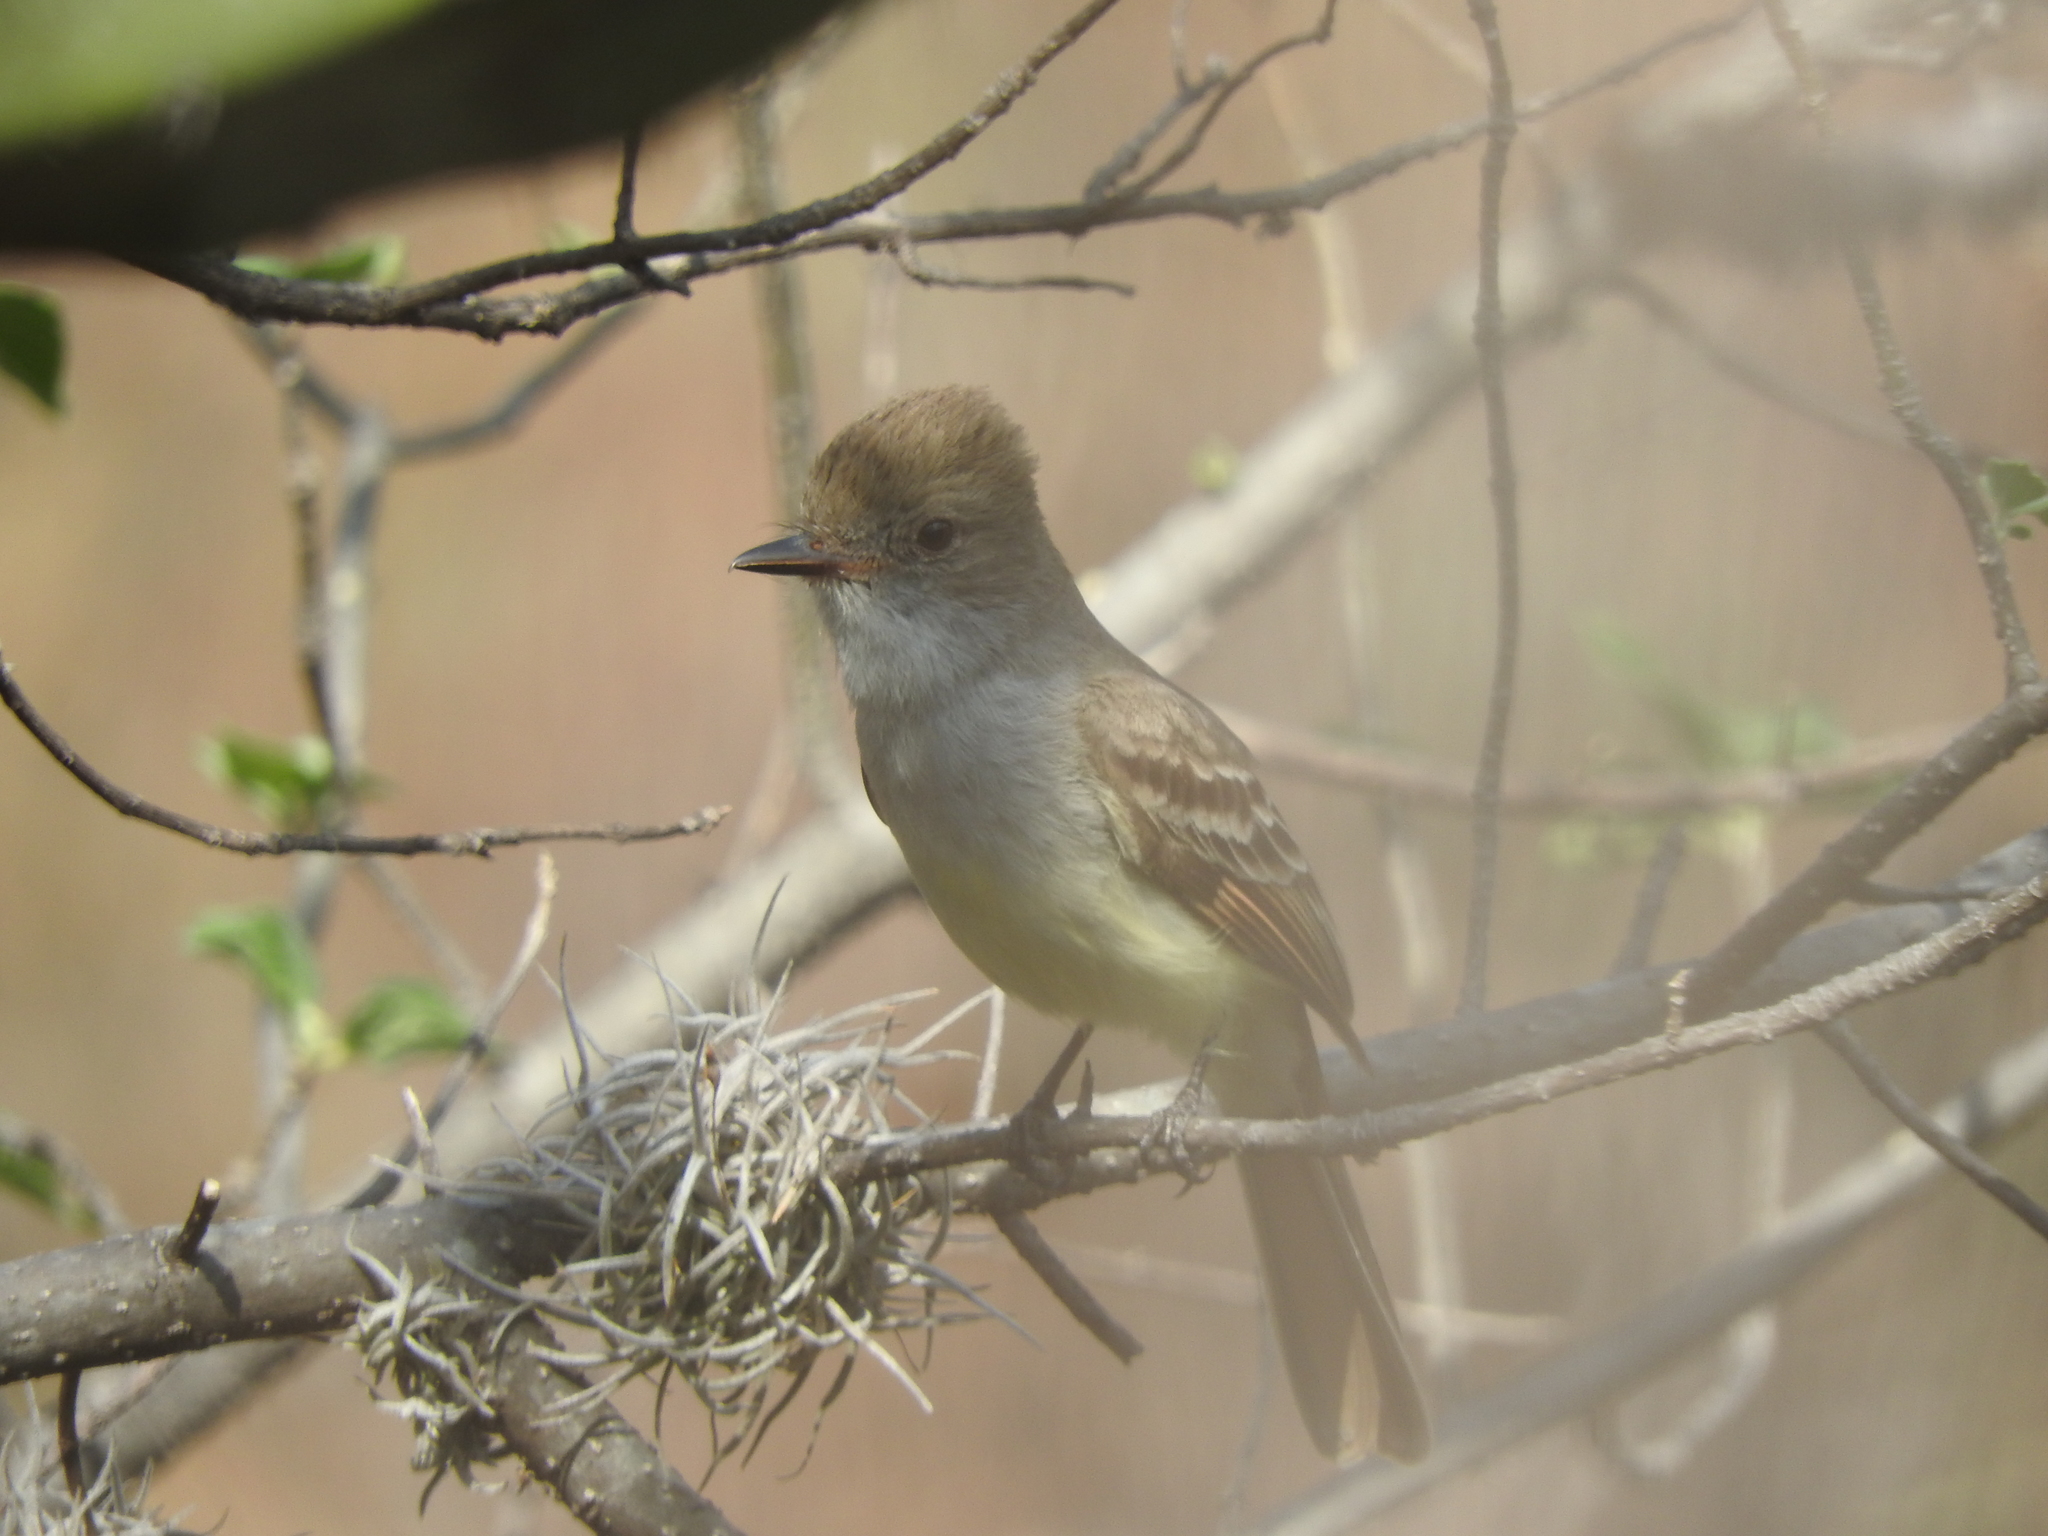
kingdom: Animalia
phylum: Chordata
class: Aves
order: Passeriformes
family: Tyrannidae
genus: Myiarchus
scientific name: Myiarchus nuttingi
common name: Nutting's flycatcher
